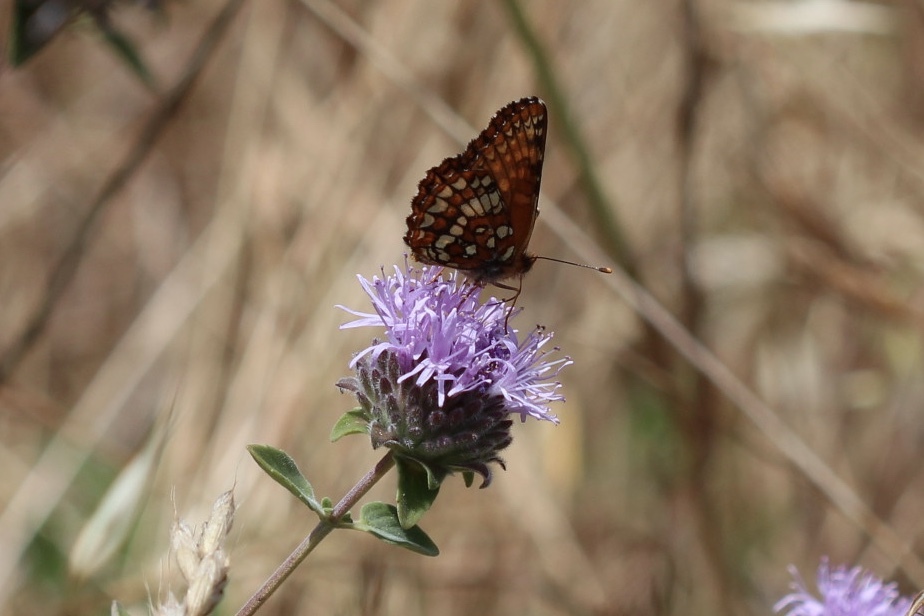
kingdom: Animalia
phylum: Arthropoda
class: Insecta
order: Lepidoptera
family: Nymphalidae
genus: Occidryas
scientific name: Occidryas chalcedona
